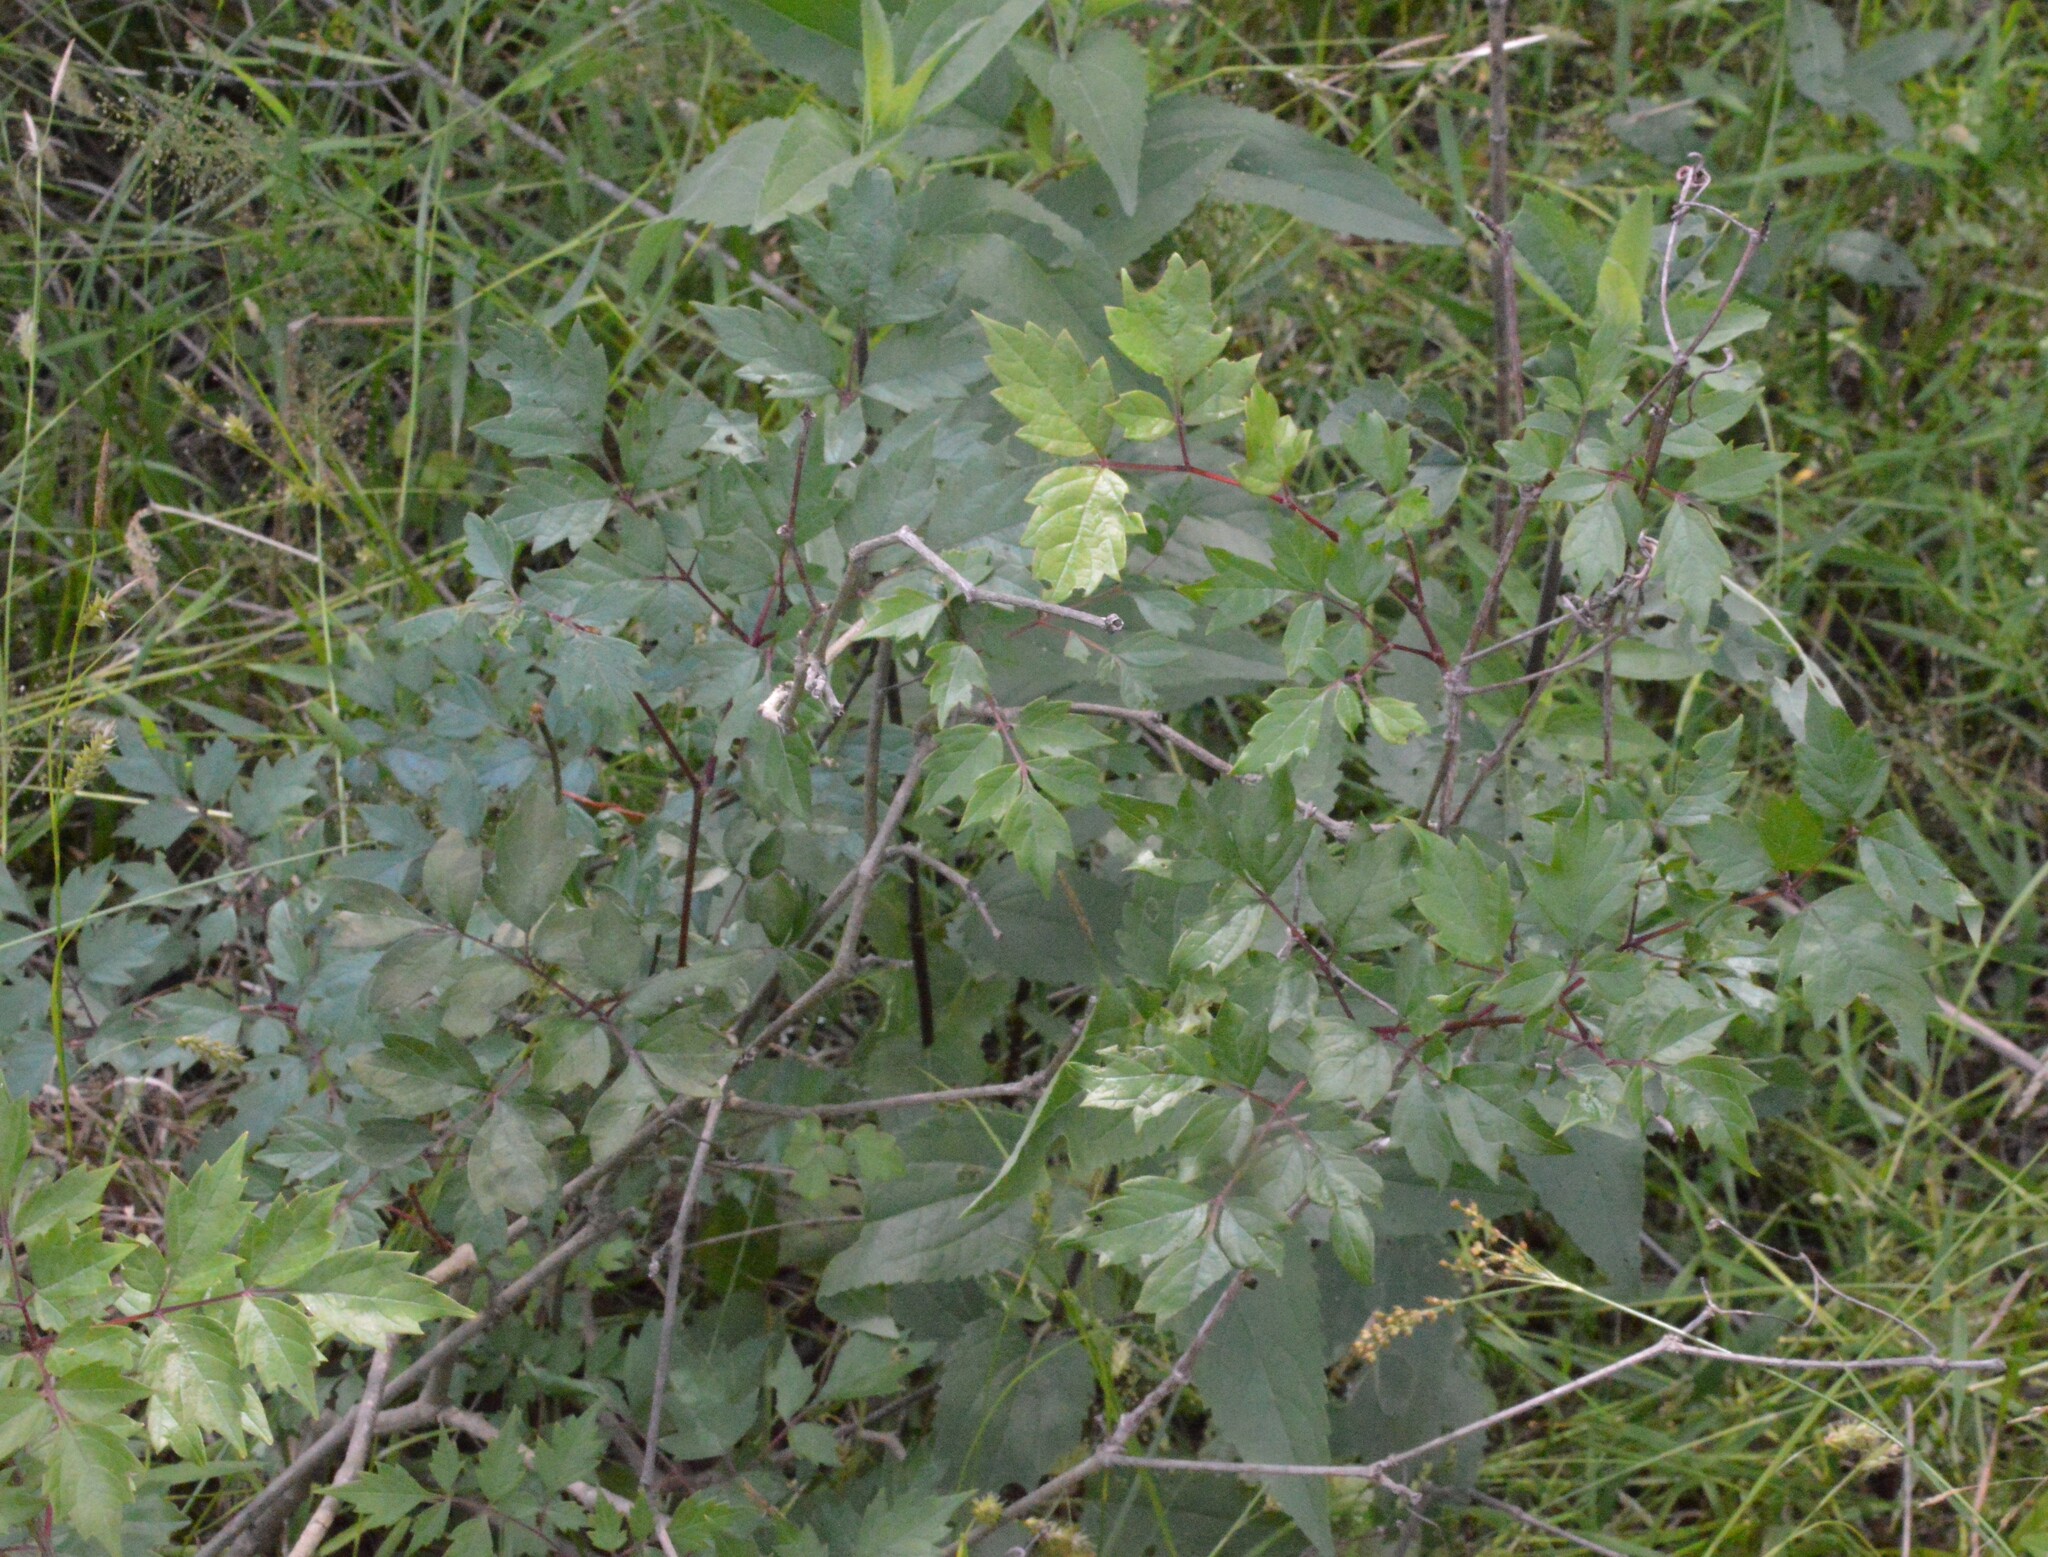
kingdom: Plantae
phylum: Tracheophyta
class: Magnoliopsida
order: Vitales
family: Vitaceae
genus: Nekemias
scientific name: Nekemias arborea
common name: Peppervine
